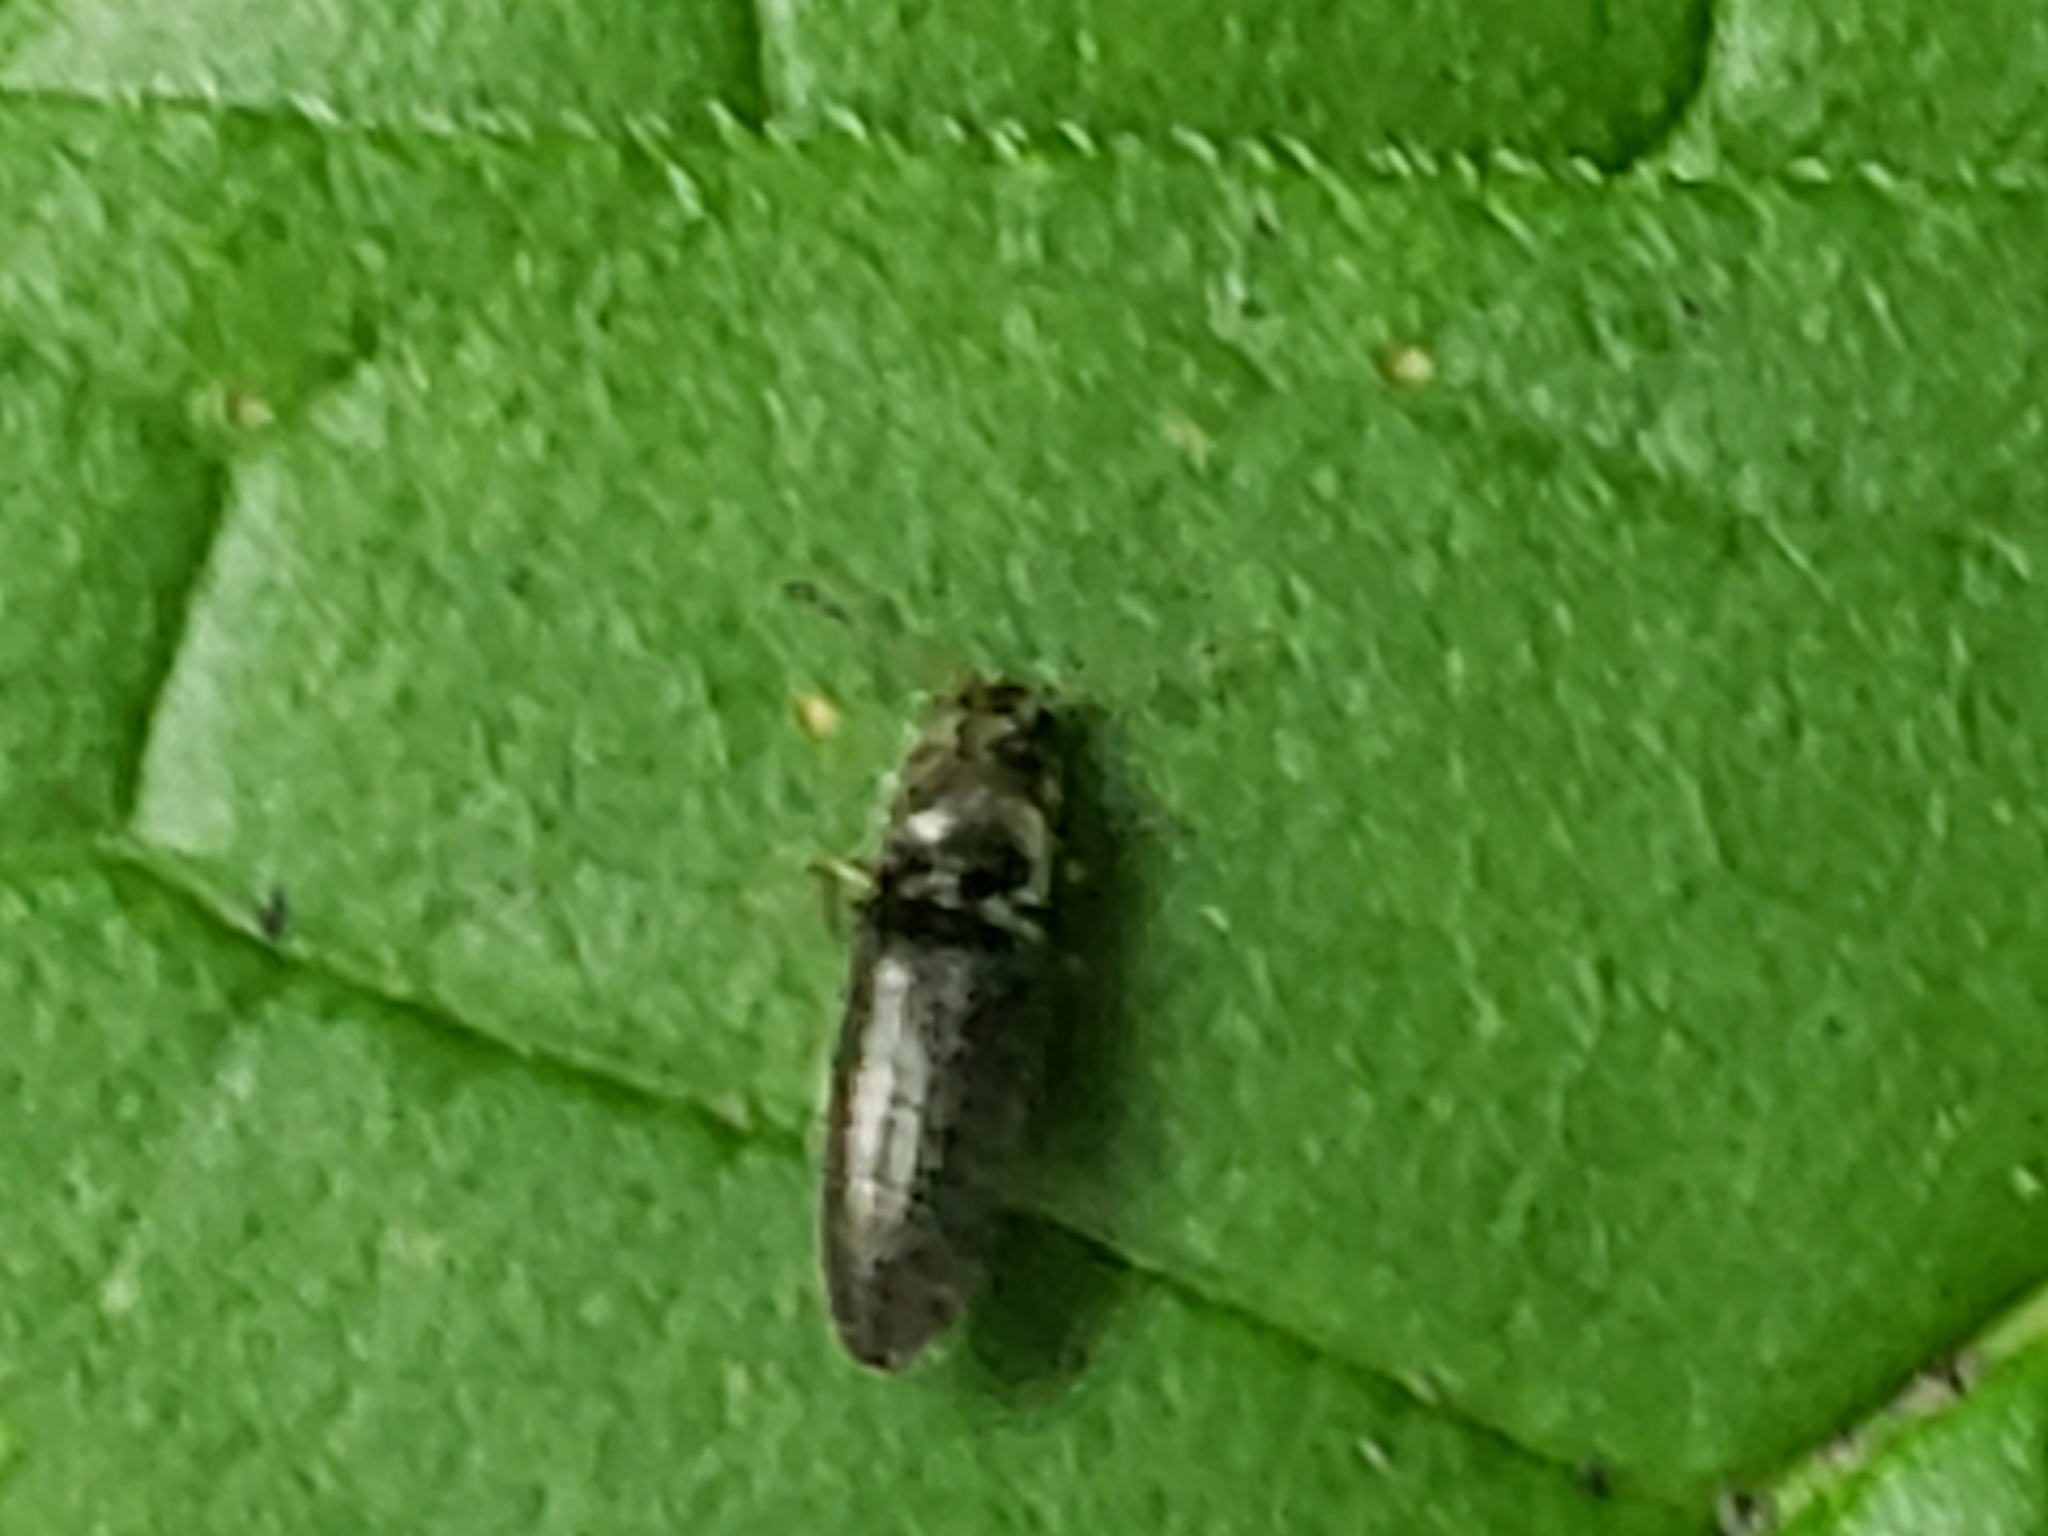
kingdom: Animalia
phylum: Arthropoda
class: Insecta
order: Coleoptera
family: Elateridae
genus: Limonius
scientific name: Limonius quercinus
